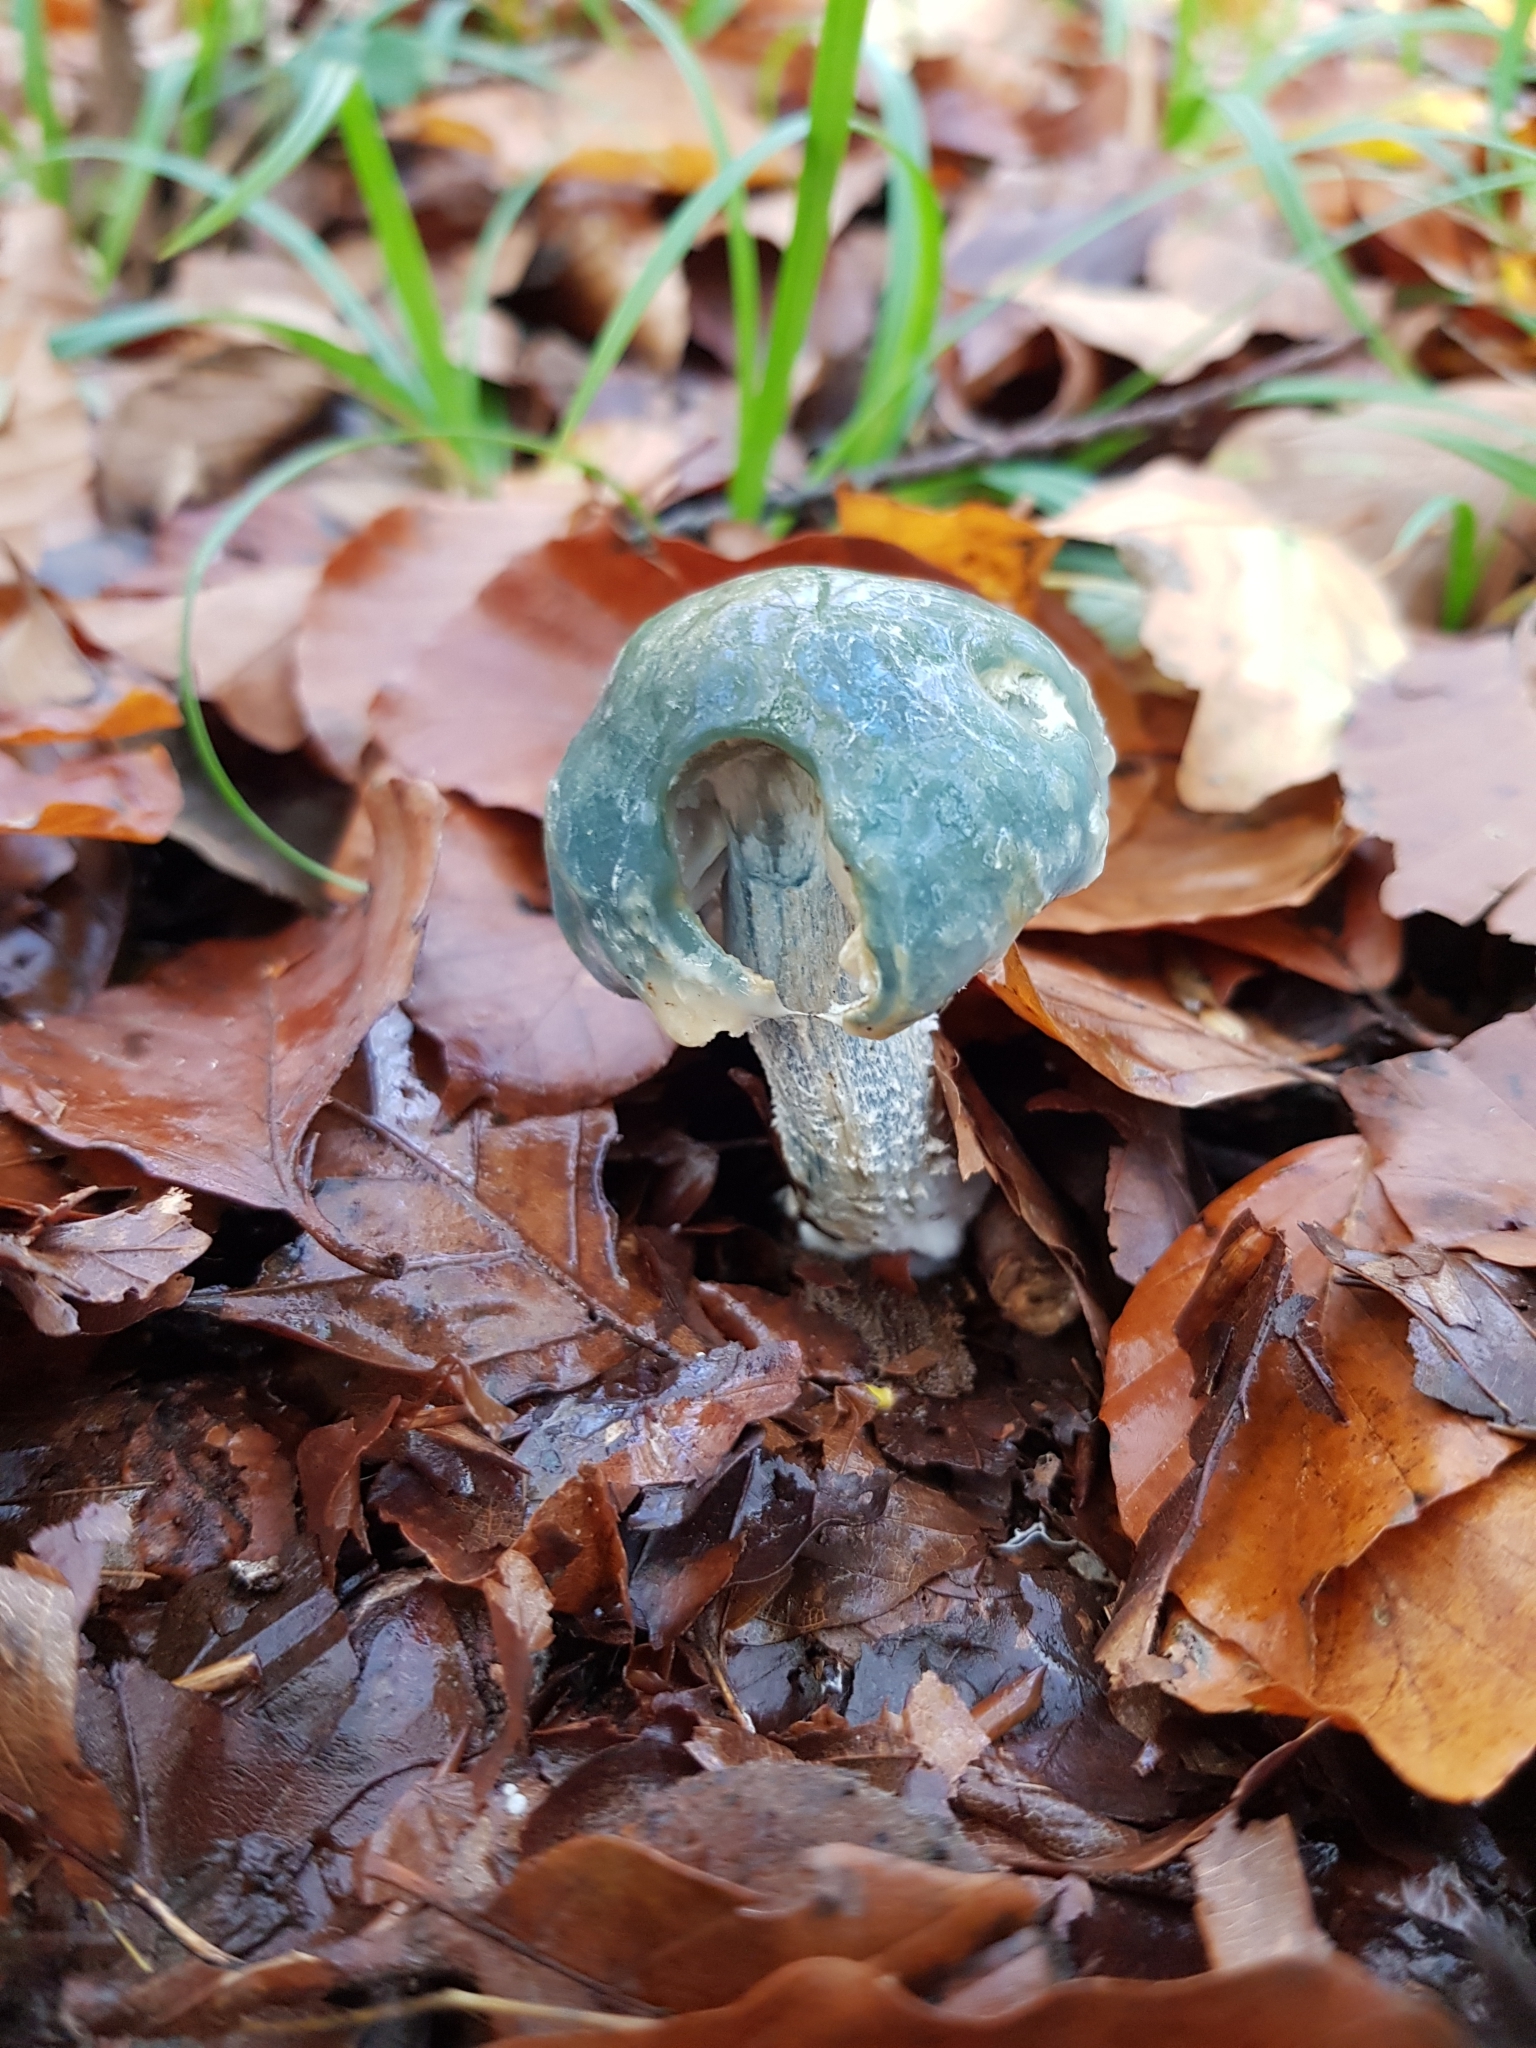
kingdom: Fungi
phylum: Basidiomycota
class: Agaricomycetes
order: Agaricales
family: Strophariaceae
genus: Stropharia
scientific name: Stropharia aeruginosa
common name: Verdigris roundhead
